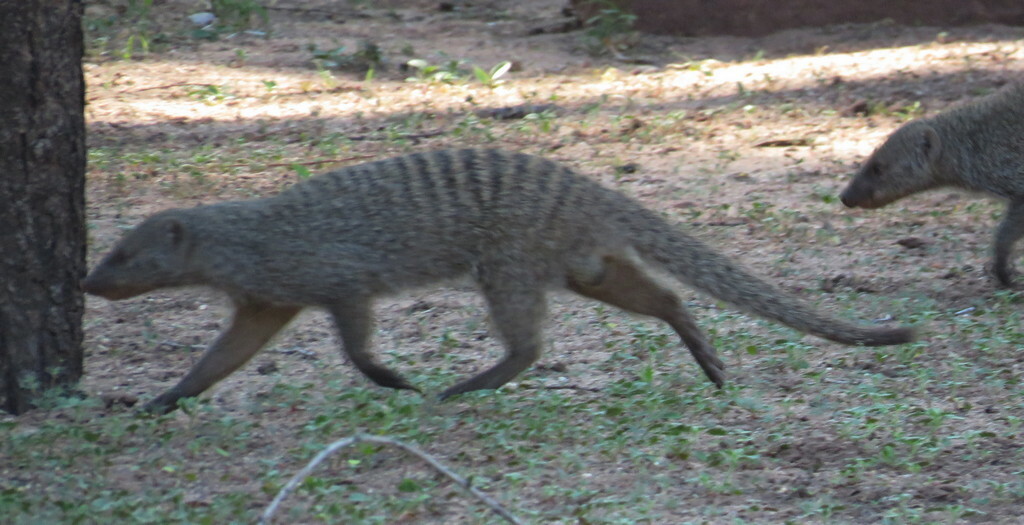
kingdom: Animalia
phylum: Chordata
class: Mammalia
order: Carnivora
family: Herpestidae
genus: Mungos
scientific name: Mungos mungo
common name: Banded mongoose
